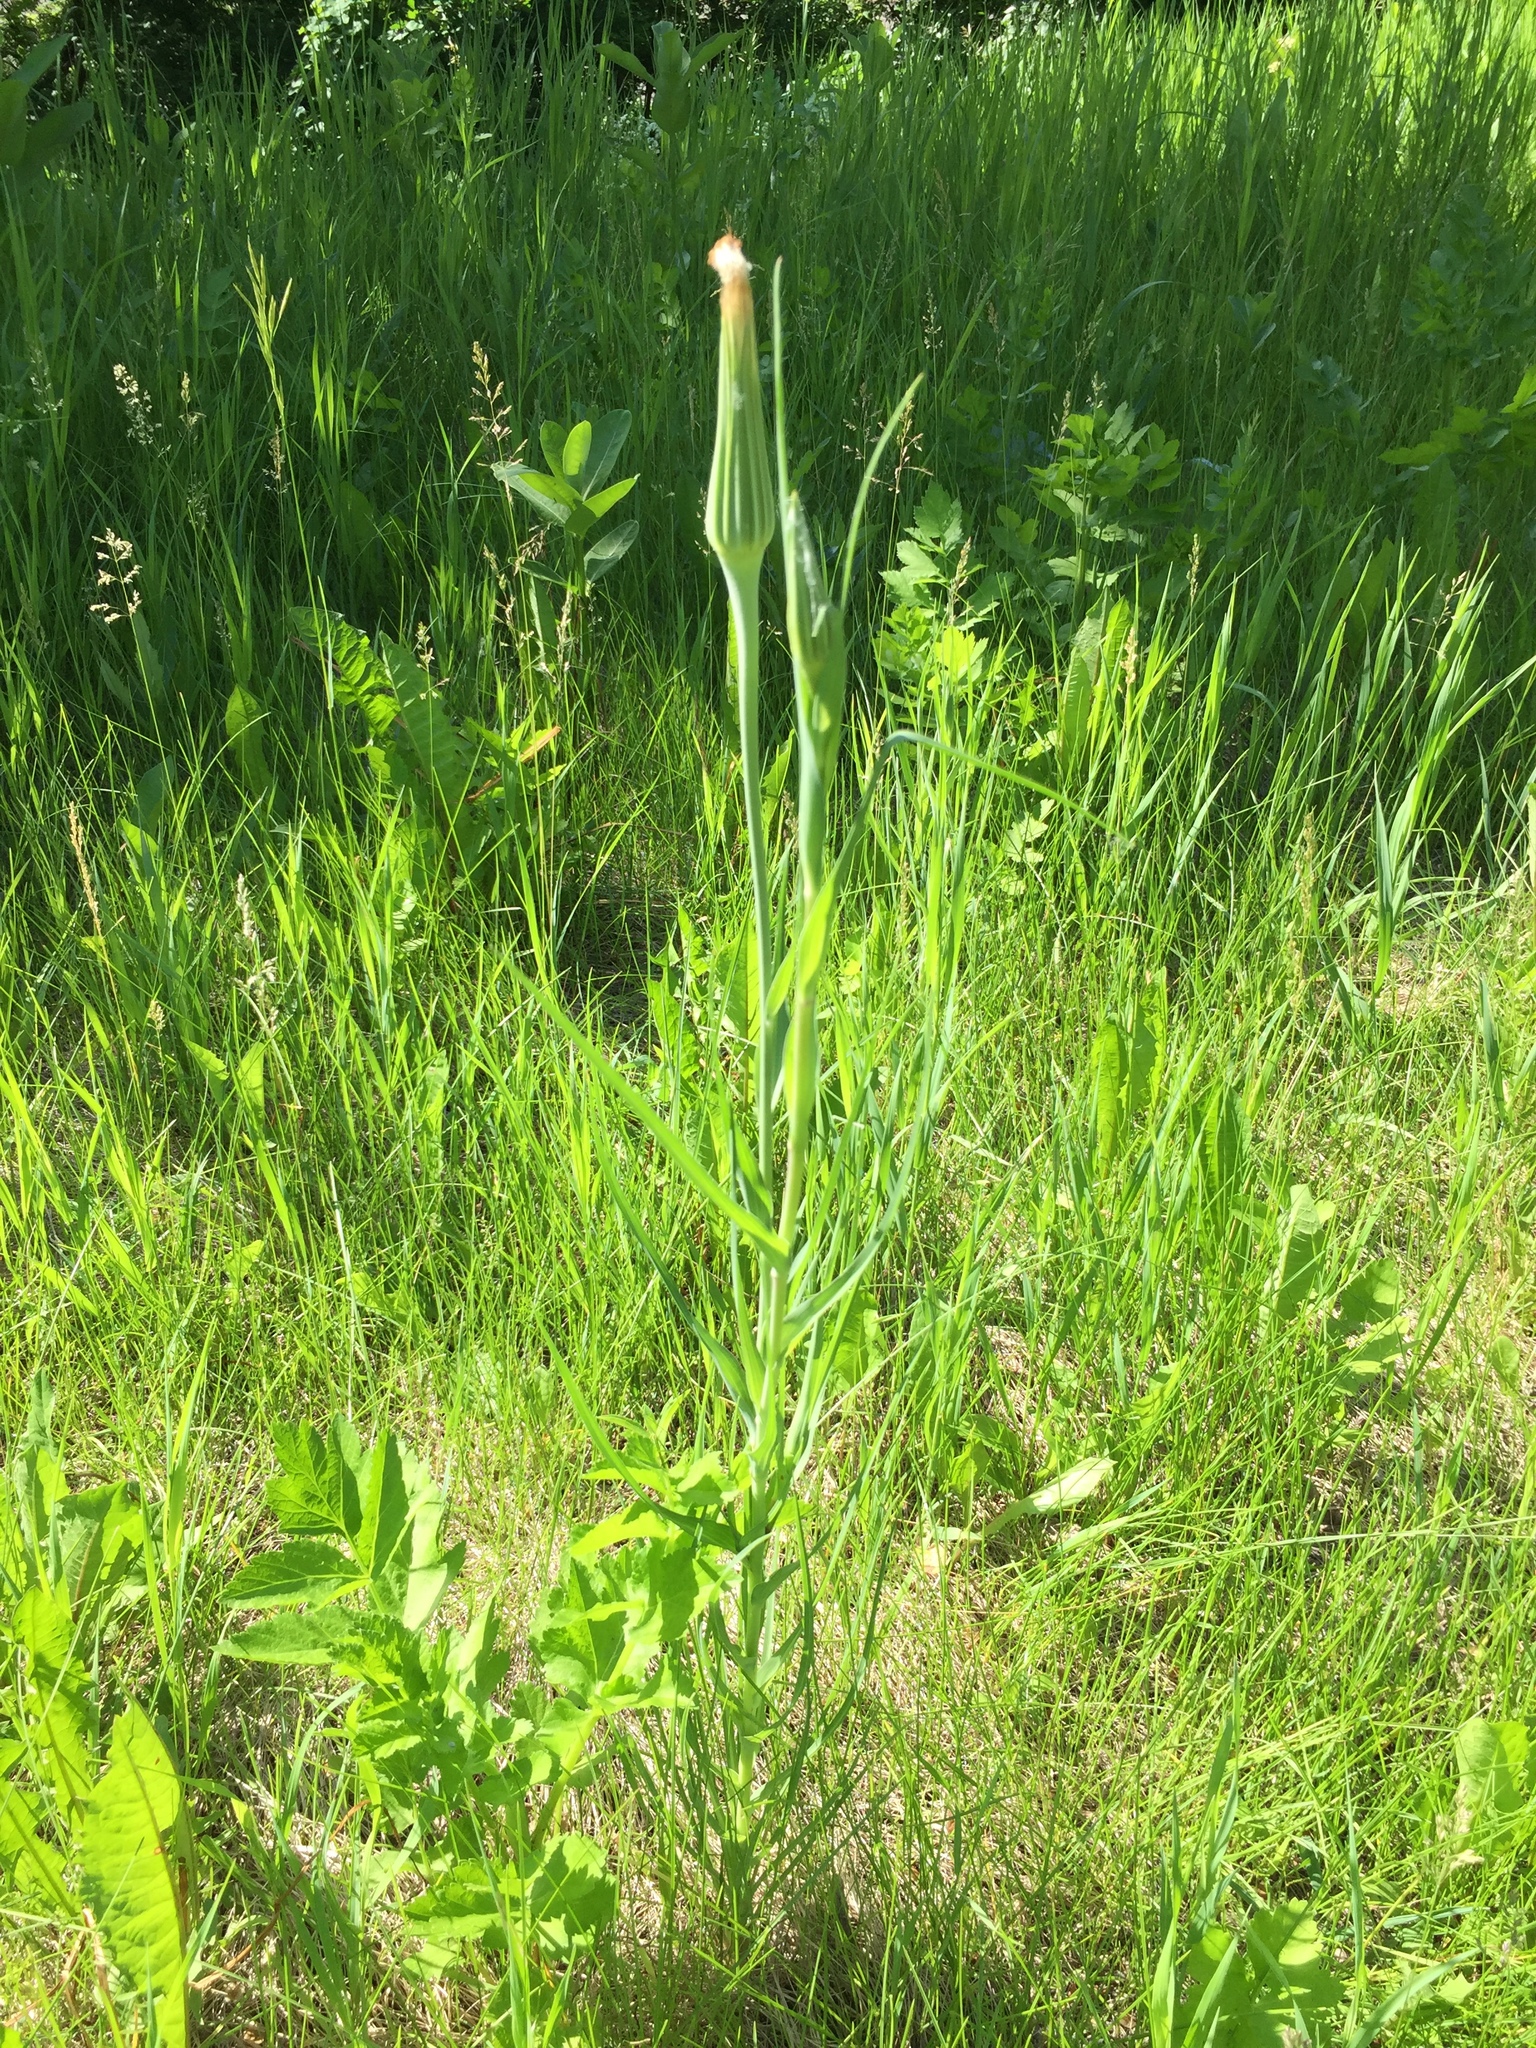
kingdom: Plantae
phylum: Tracheophyta
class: Magnoliopsida
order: Asterales
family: Asteraceae
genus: Tragopogon
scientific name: Tragopogon dubius
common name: Yellow salsify
